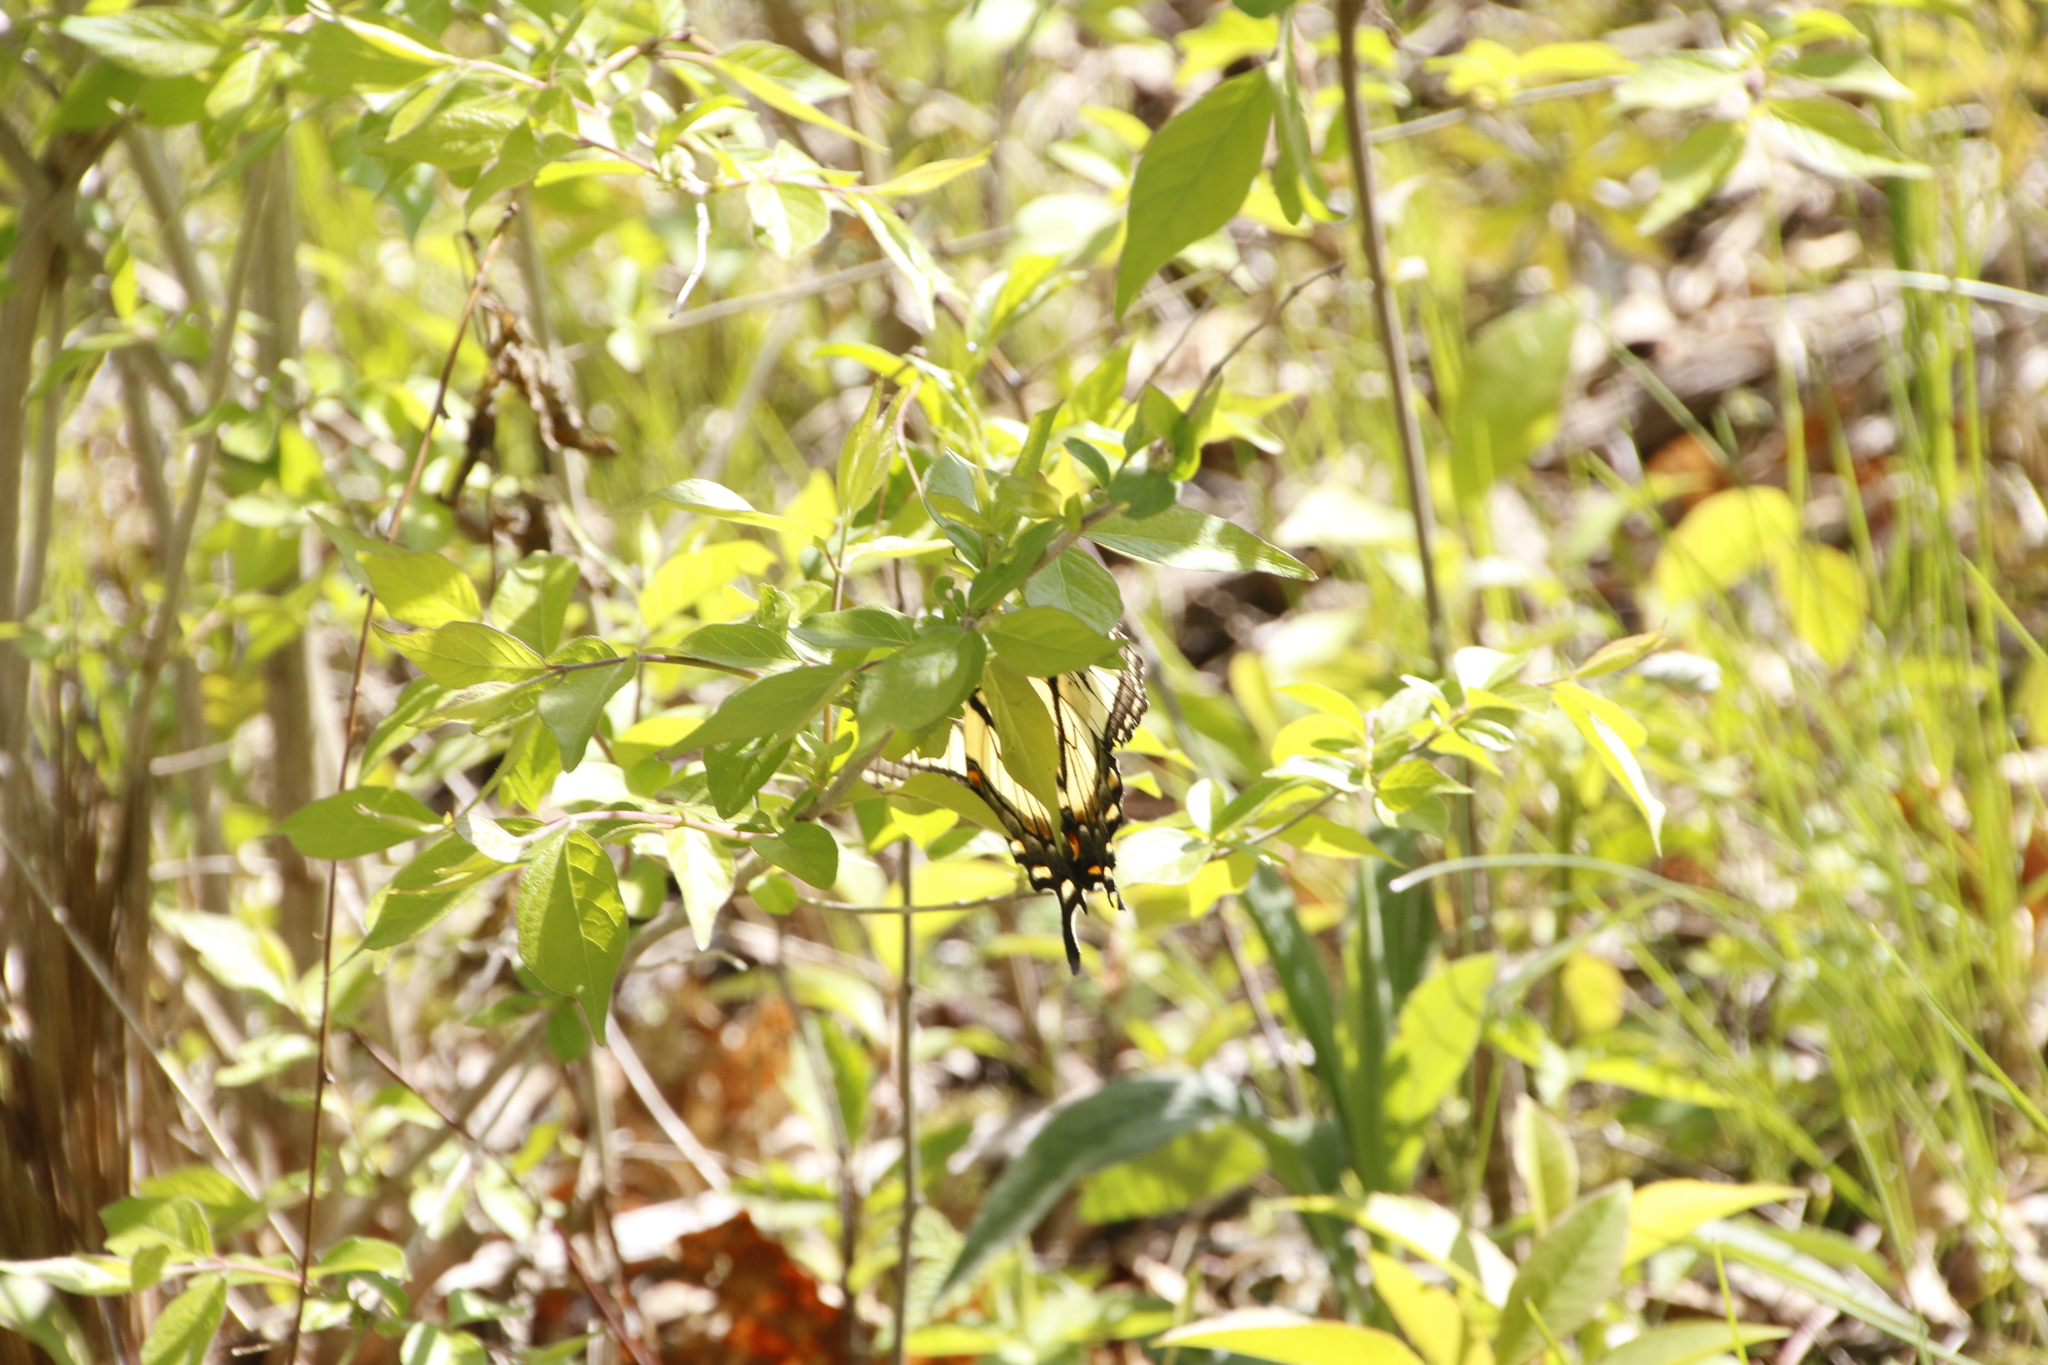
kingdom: Animalia
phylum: Arthropoda
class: Insecta
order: Lepidoptera
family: Papilionidae
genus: Papilio
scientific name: Papilio glaucus
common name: Tiger swallowtail
